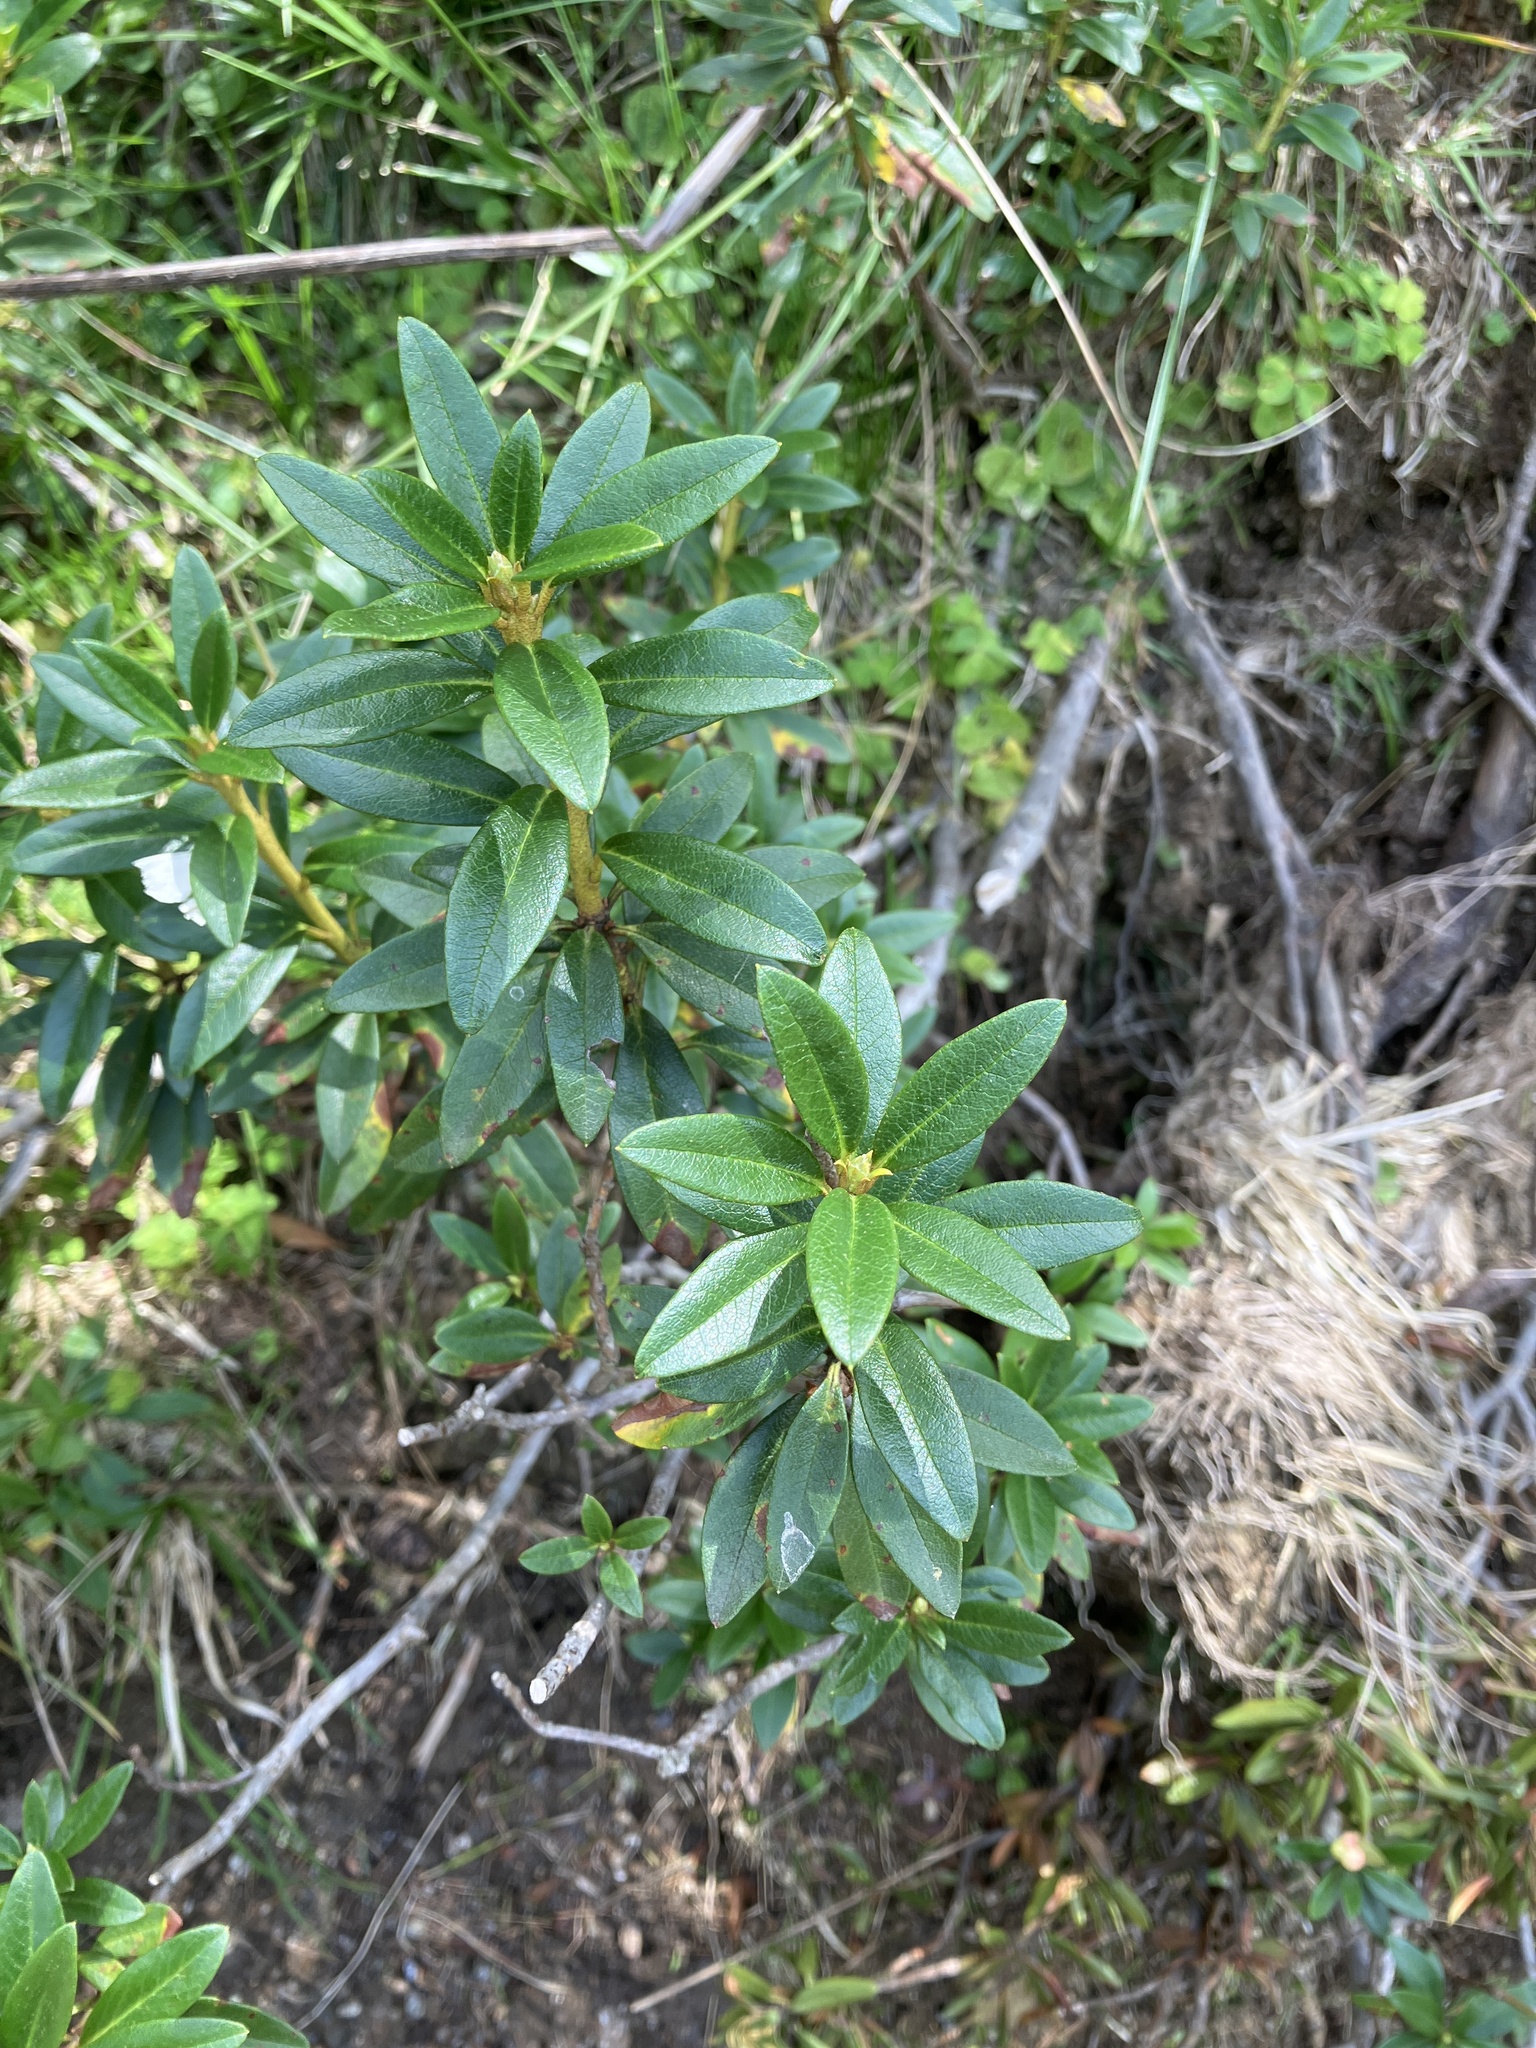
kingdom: Plantae
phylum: Tracheophyta
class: Magnoliopsida
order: Ericales
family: Ericaceae
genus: Rhododendron
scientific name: Rhododendron ferrugineum
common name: Alpenrose
